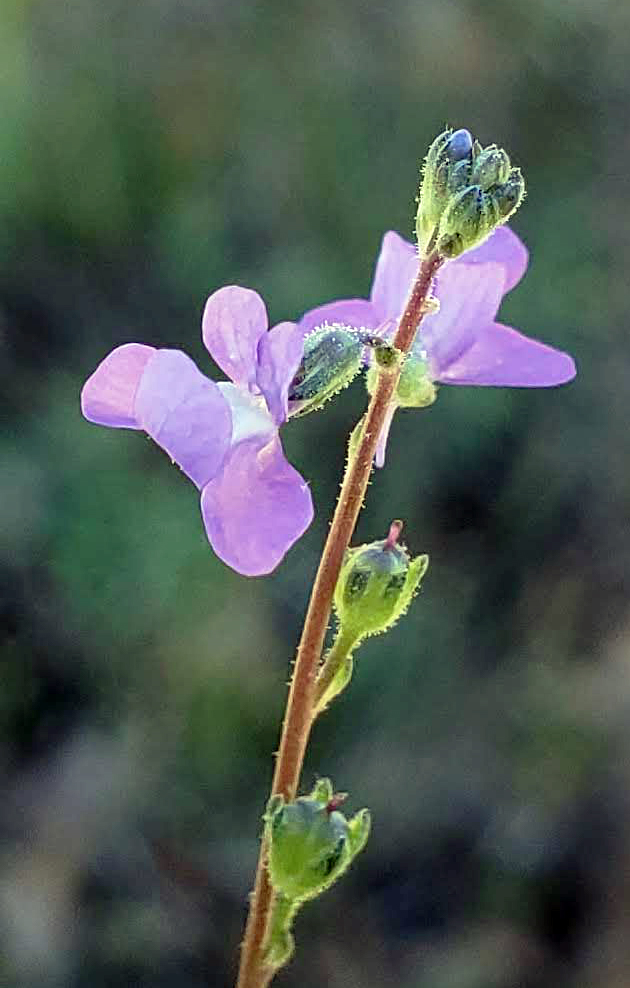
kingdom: Plantae
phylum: Tracheophyta
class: Magnoliopsida
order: Lamiales
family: Plantaginaceae
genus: Nuttallanthus
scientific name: Nuttallanthus canadensis
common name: Blue toadflax
